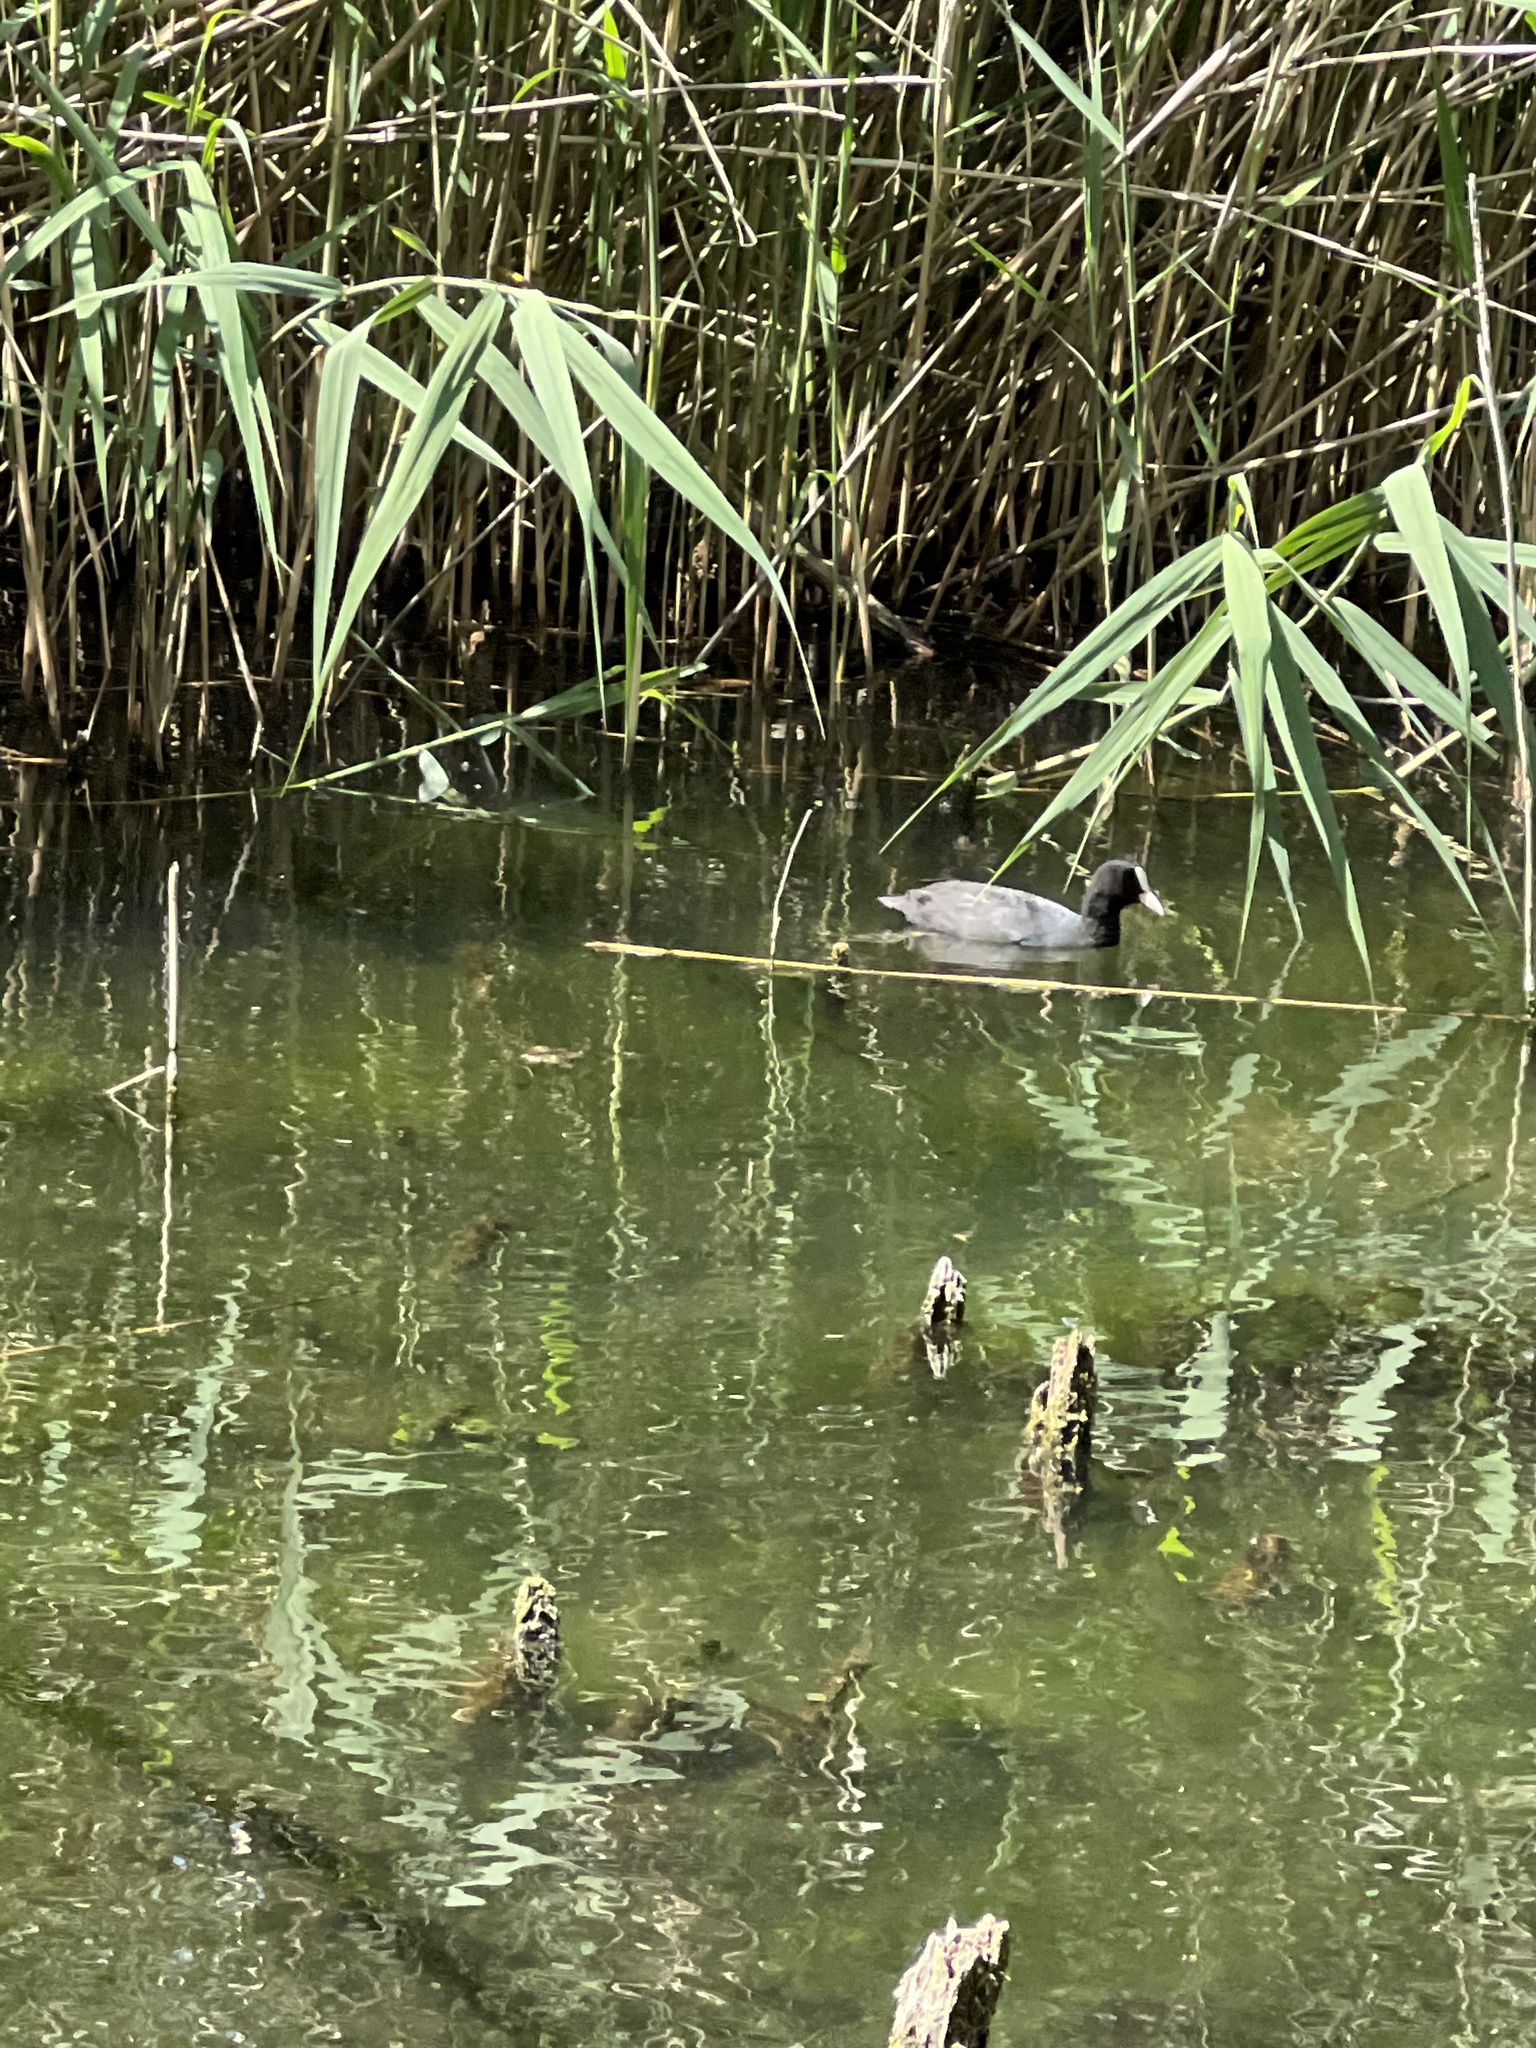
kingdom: Animalia
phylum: Chordata
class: Aves
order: Gruiformes
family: Rallidae
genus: Fulica
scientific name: Fulica atra
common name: Eurasian coot
